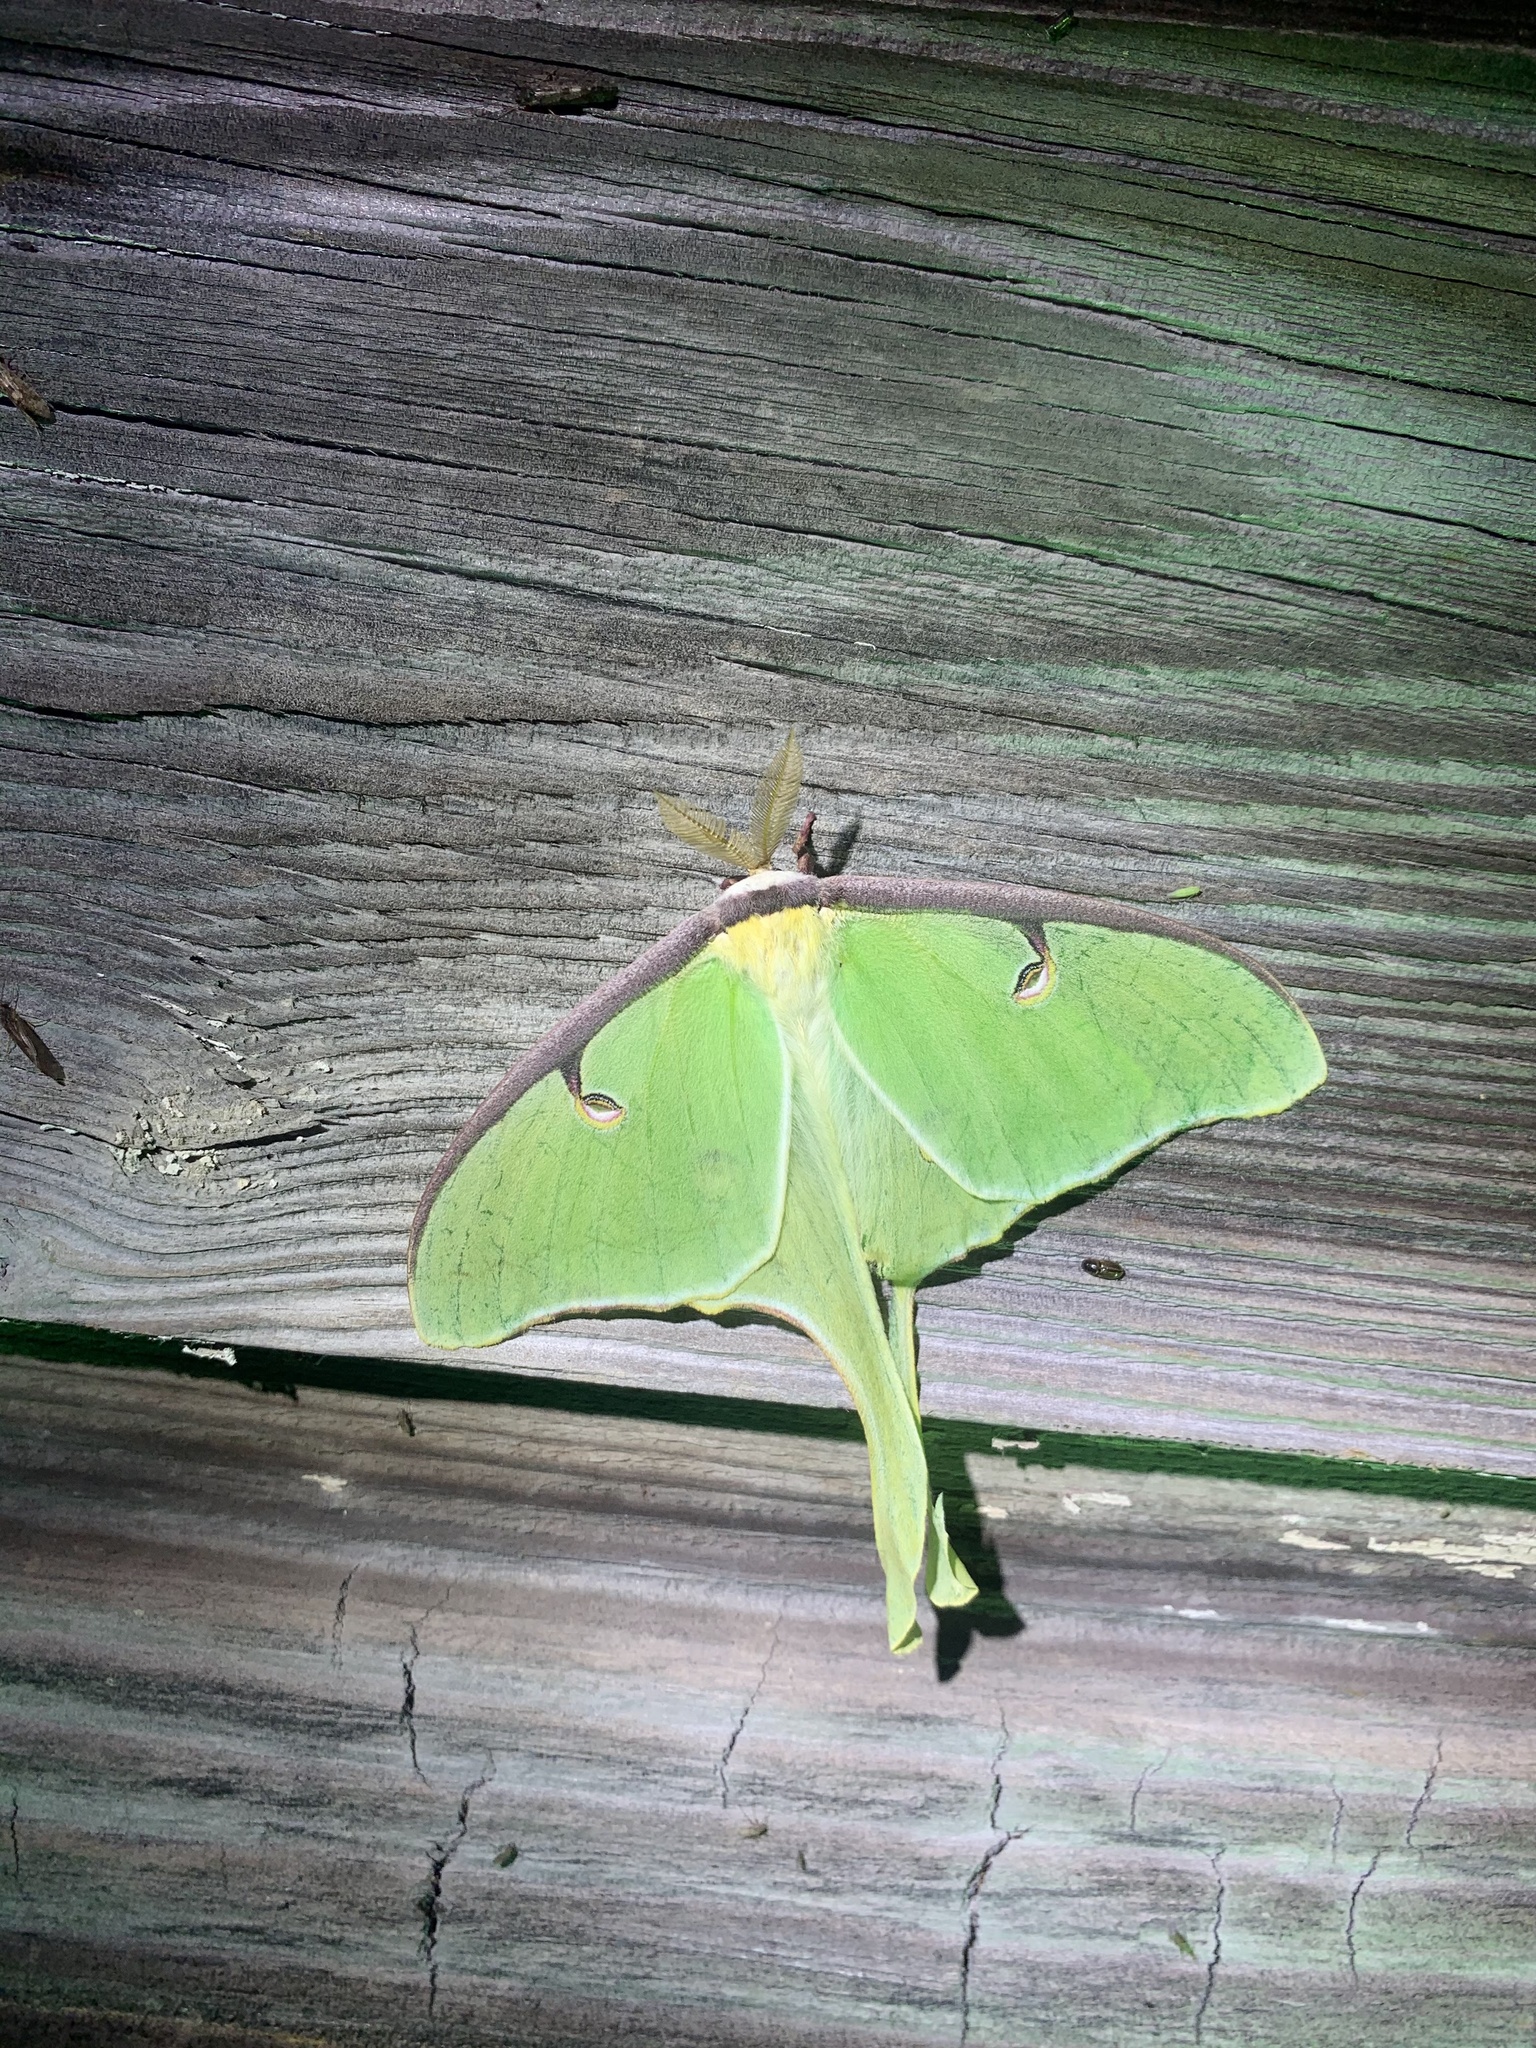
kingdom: Animalia
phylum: Arthropoda
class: Insecta
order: Lepidoptera
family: Saturniidae
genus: Actias
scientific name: Actias luna
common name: Luna moth
